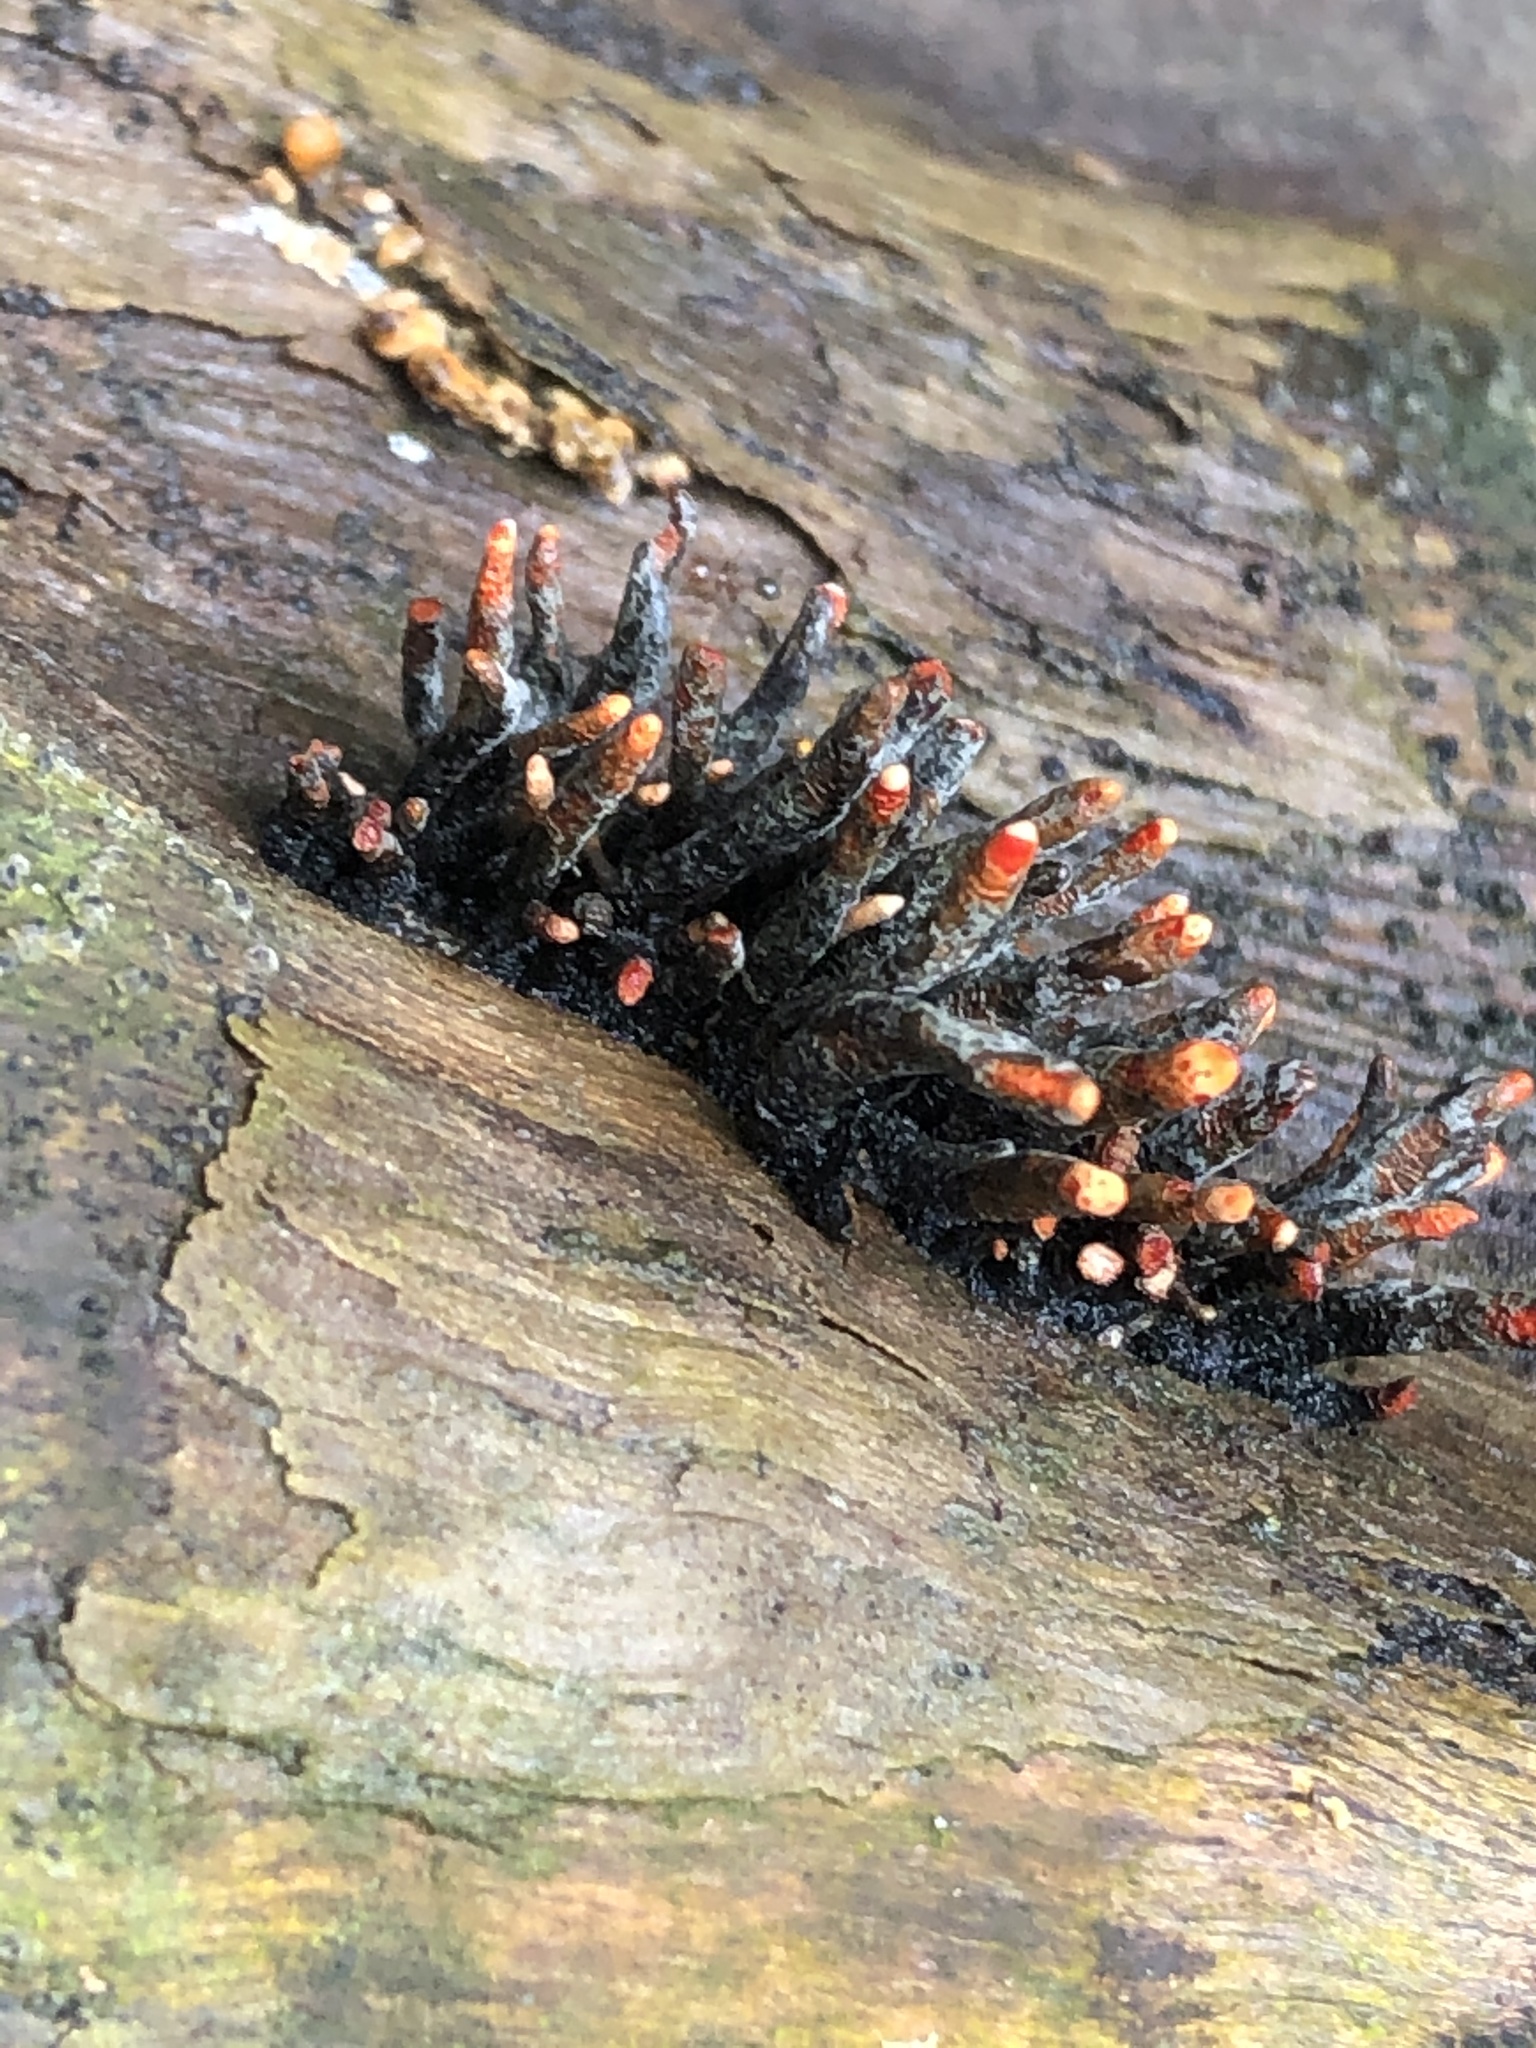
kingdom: Fungi
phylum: Ascomycota
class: Sordariomycetes
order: Xylariales
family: Xylariaceae
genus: Xylaria
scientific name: Xylaria globosa
